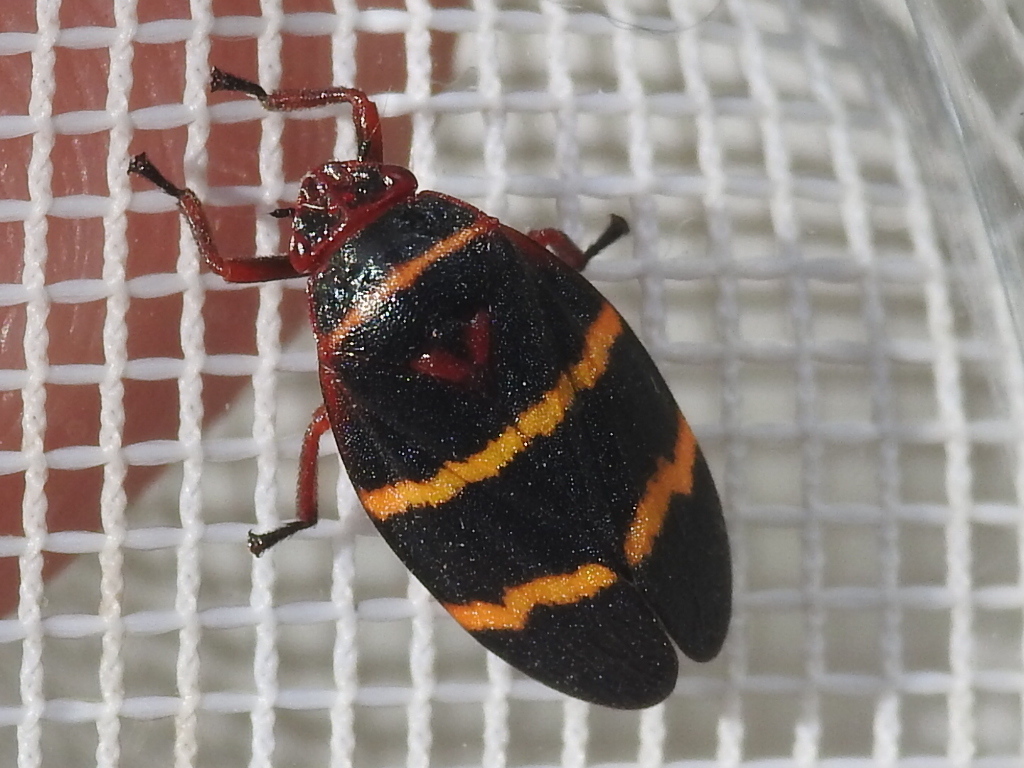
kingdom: Animalia
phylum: Arthropoda
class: Insecta
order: Hemiptera
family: Cercopidae
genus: Prosapia
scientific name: Prosapia bicincta
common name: Twolined spittlebug
